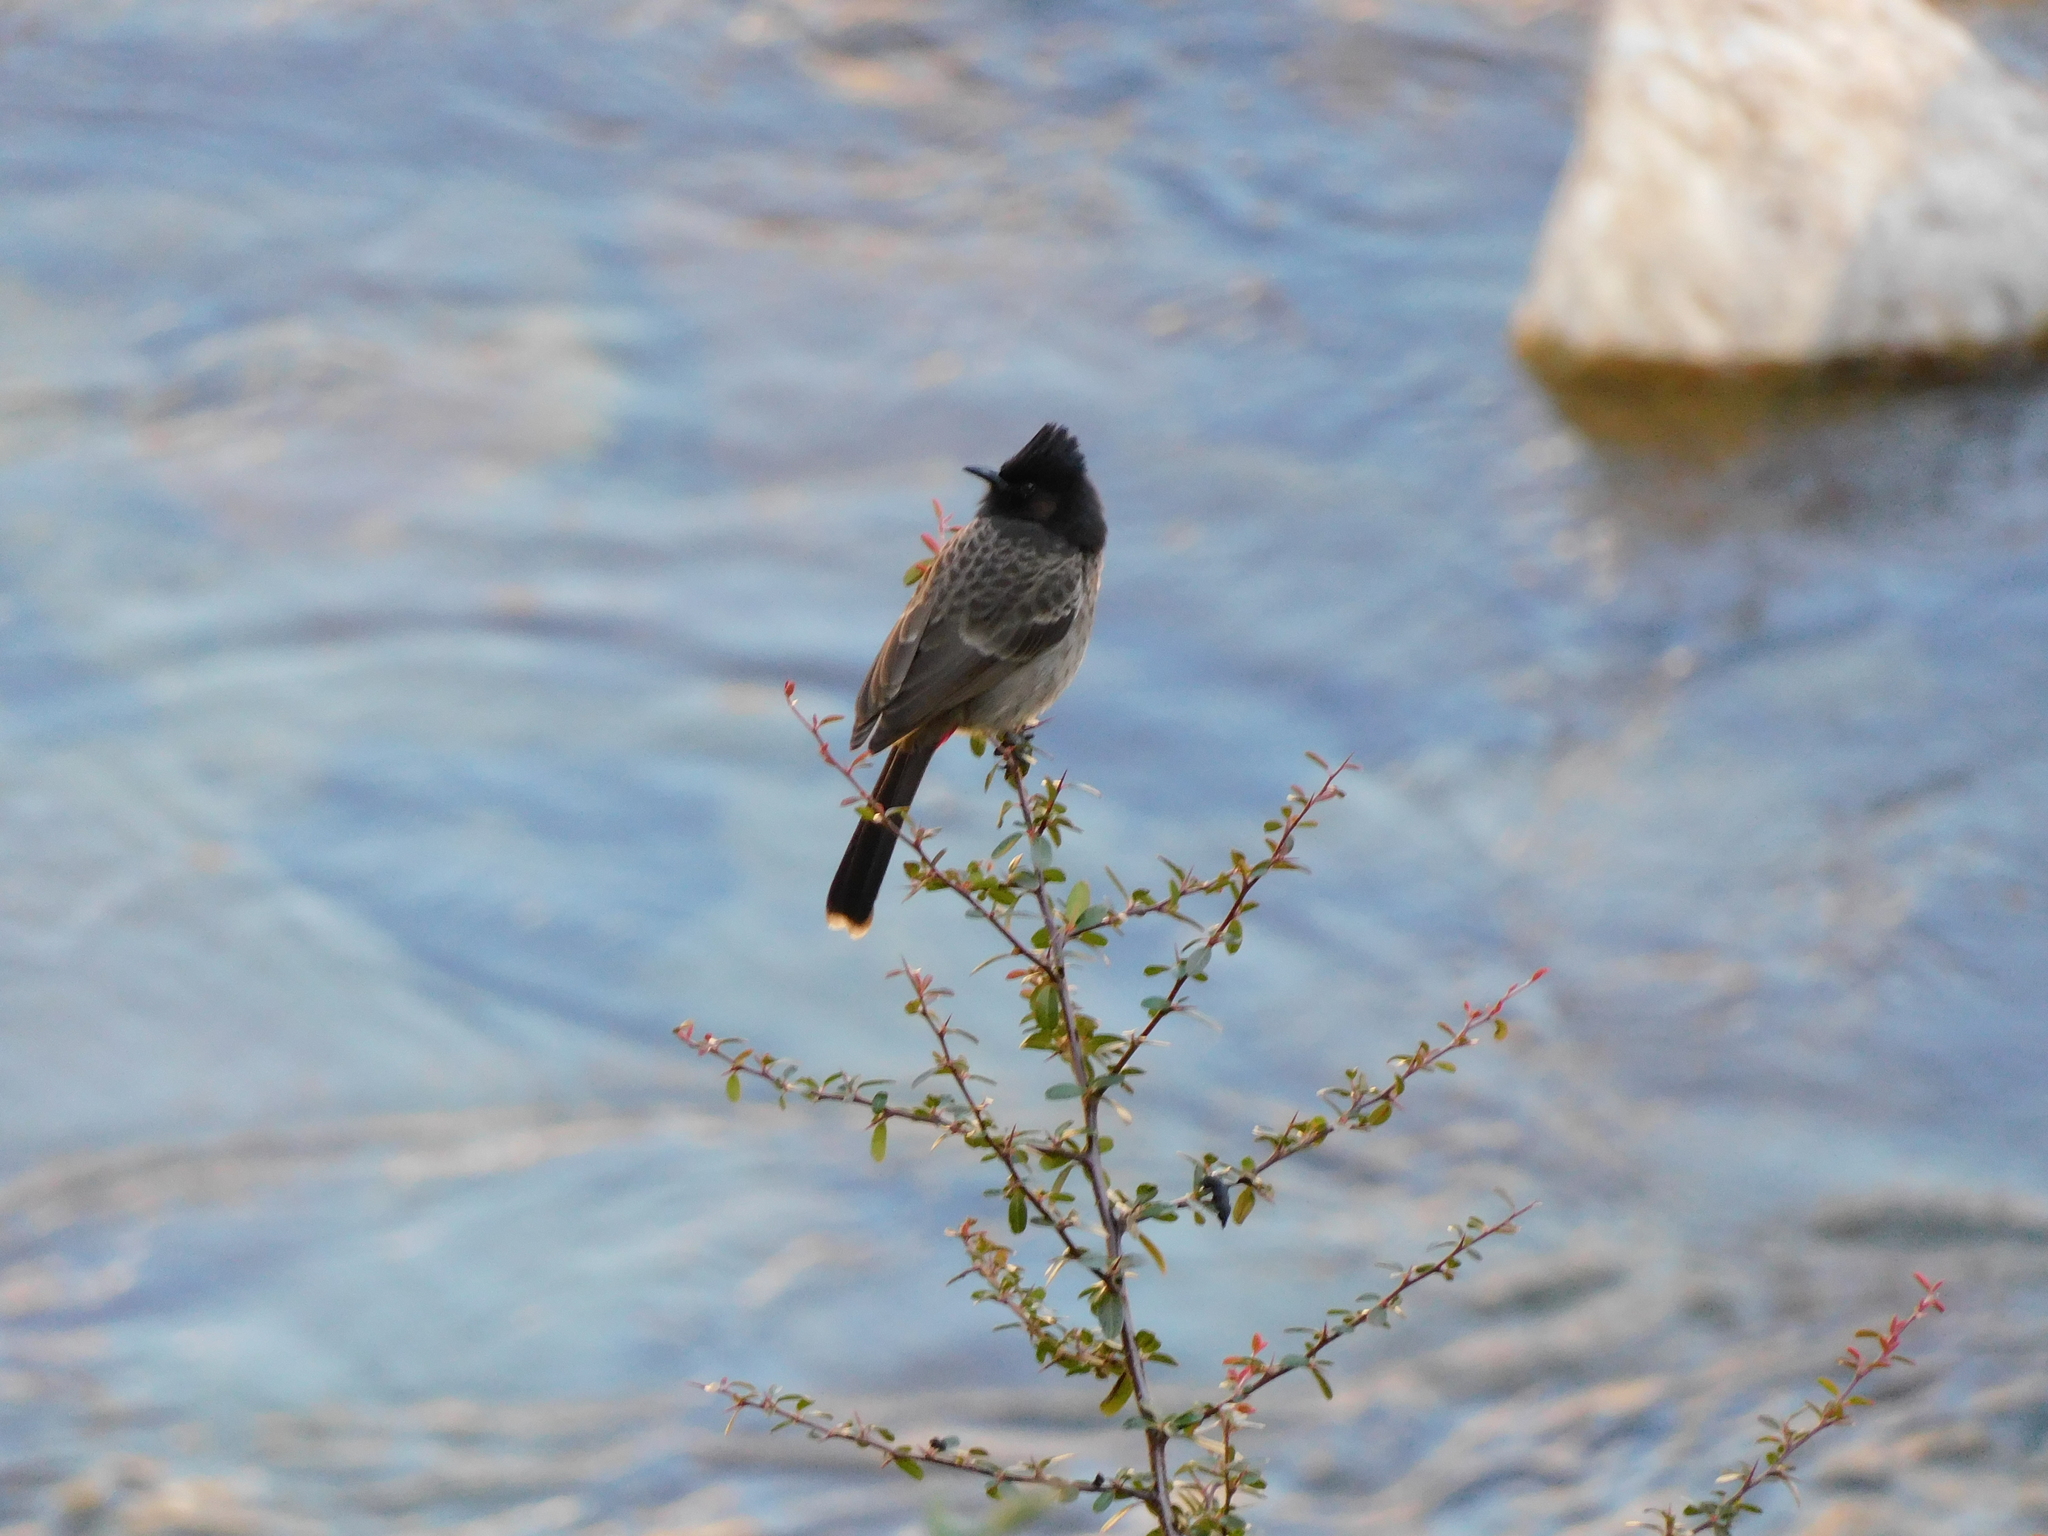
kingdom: Animalia
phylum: Chordata
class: Aves
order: Passeriformes
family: Pycnonotidae
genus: Pycnonotus
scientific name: Pycnonotus cafer
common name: Red-vented bulbul
